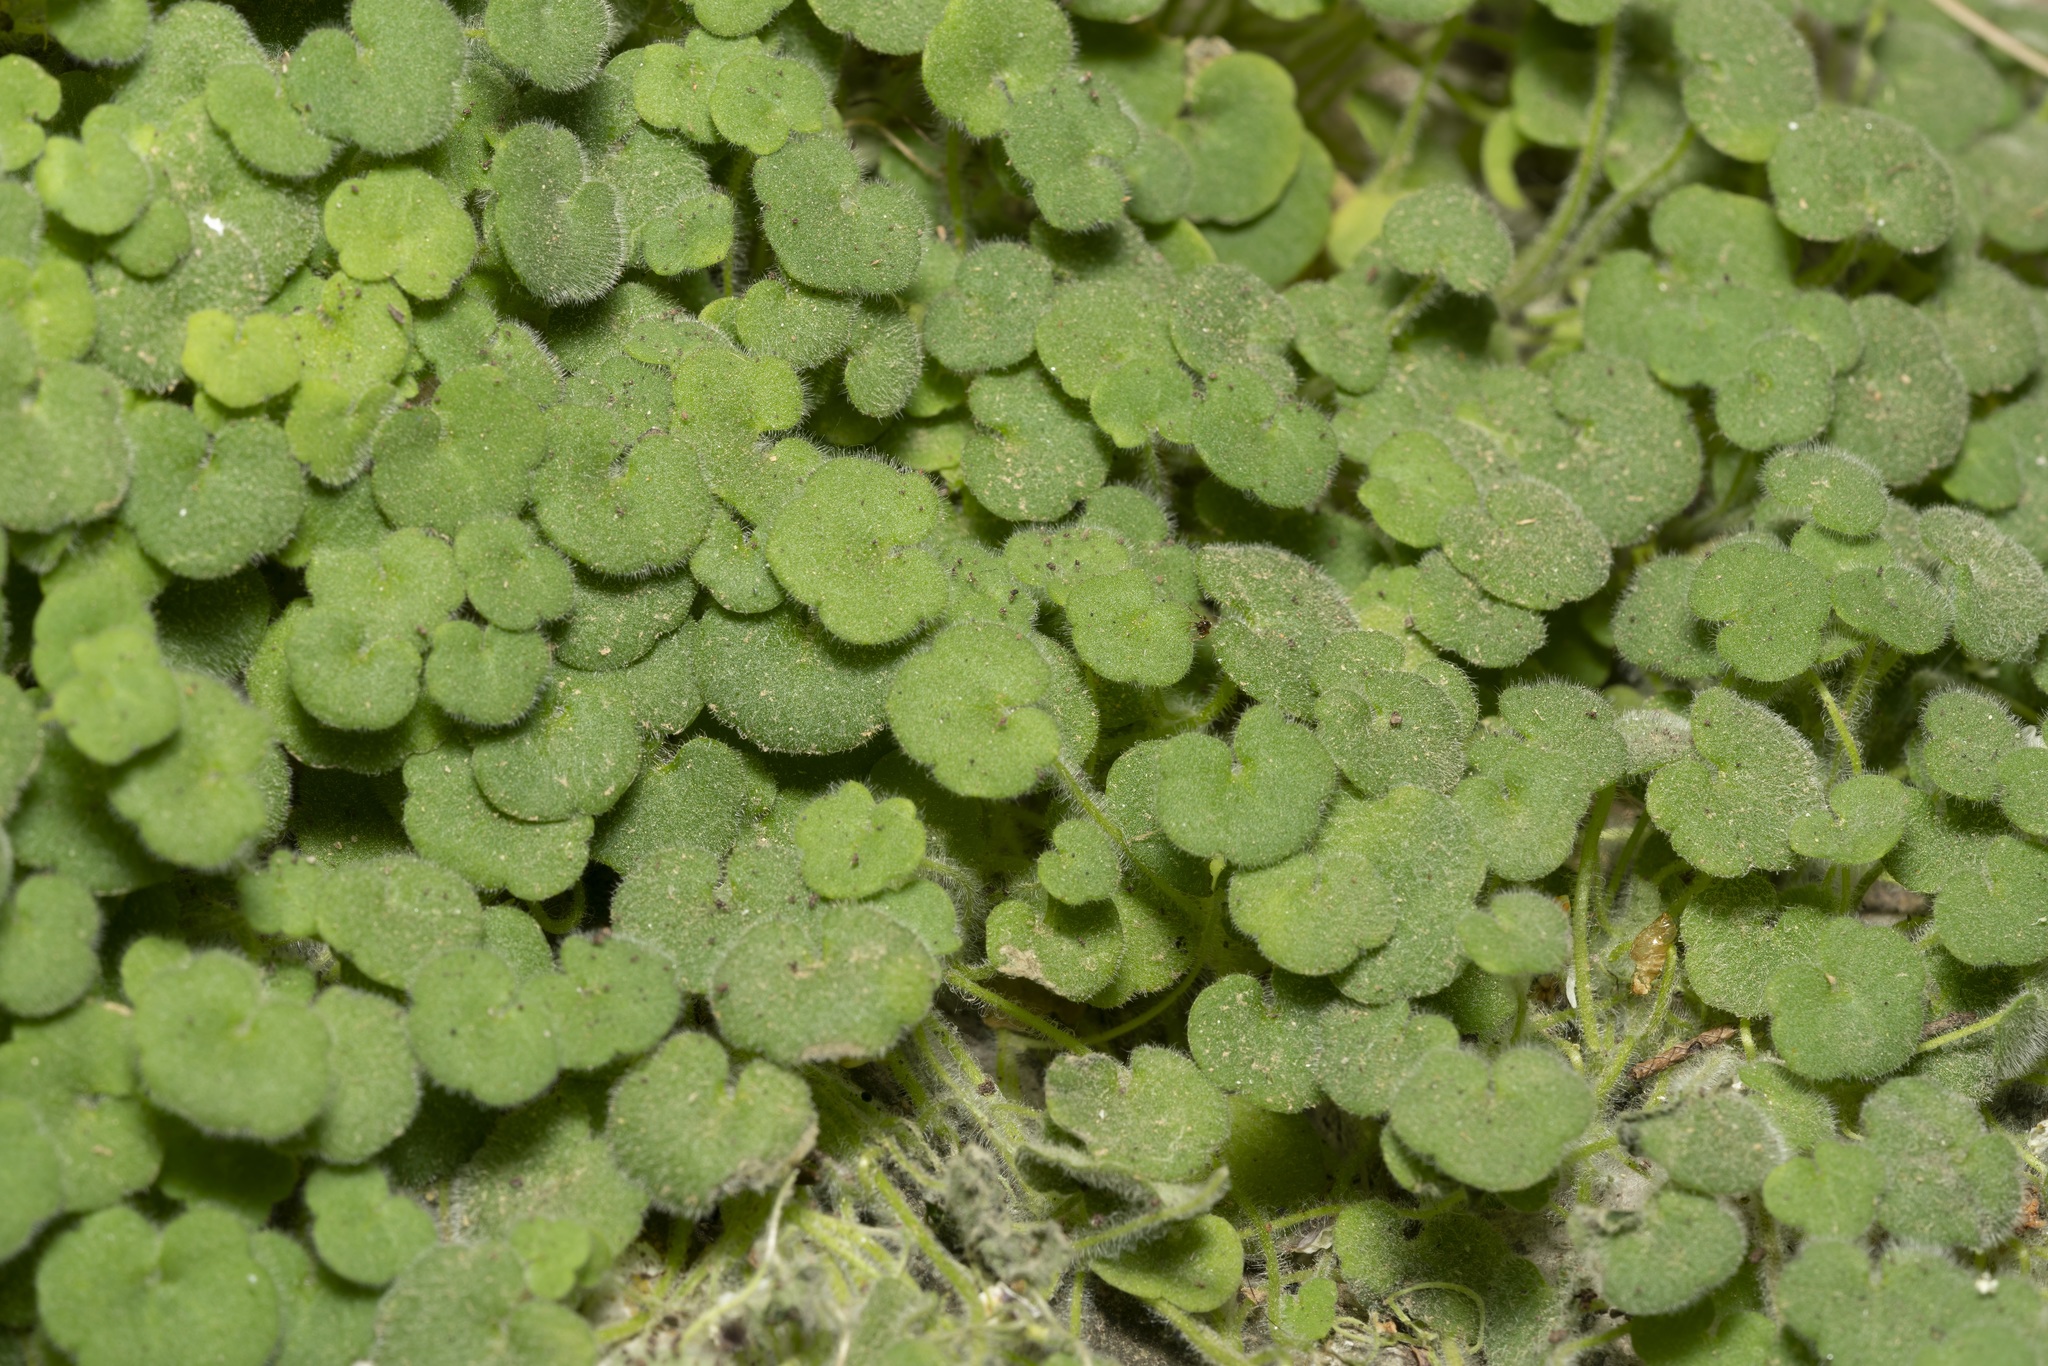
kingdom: Plantae
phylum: Tracheophyta
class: Magnoliopsida
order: Lamiales
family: Plantaginaceae
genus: Cymbalaria
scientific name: Cymbalaria acutiloba
